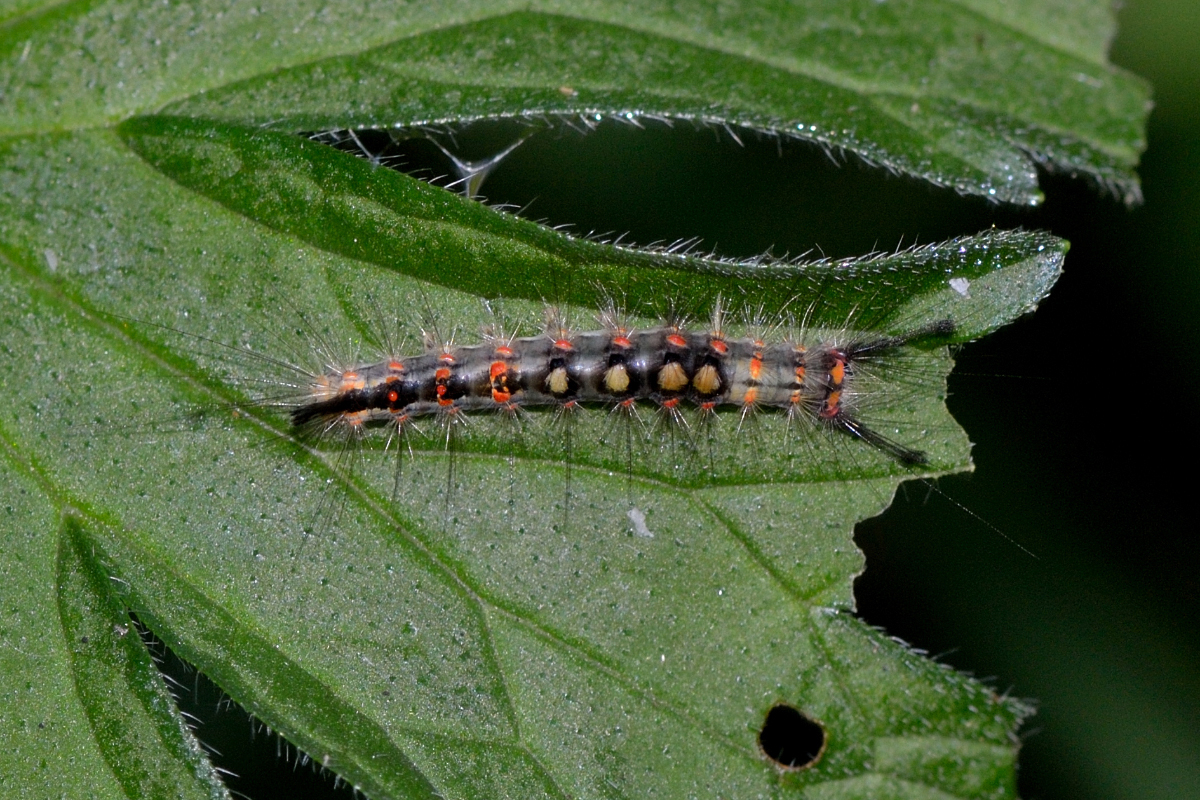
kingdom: Animalia
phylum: Arthropoda
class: Insecta
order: Lepidoptera
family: Erebidae
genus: Orgyia
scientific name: Orgyia antiqua
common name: Vapourer
